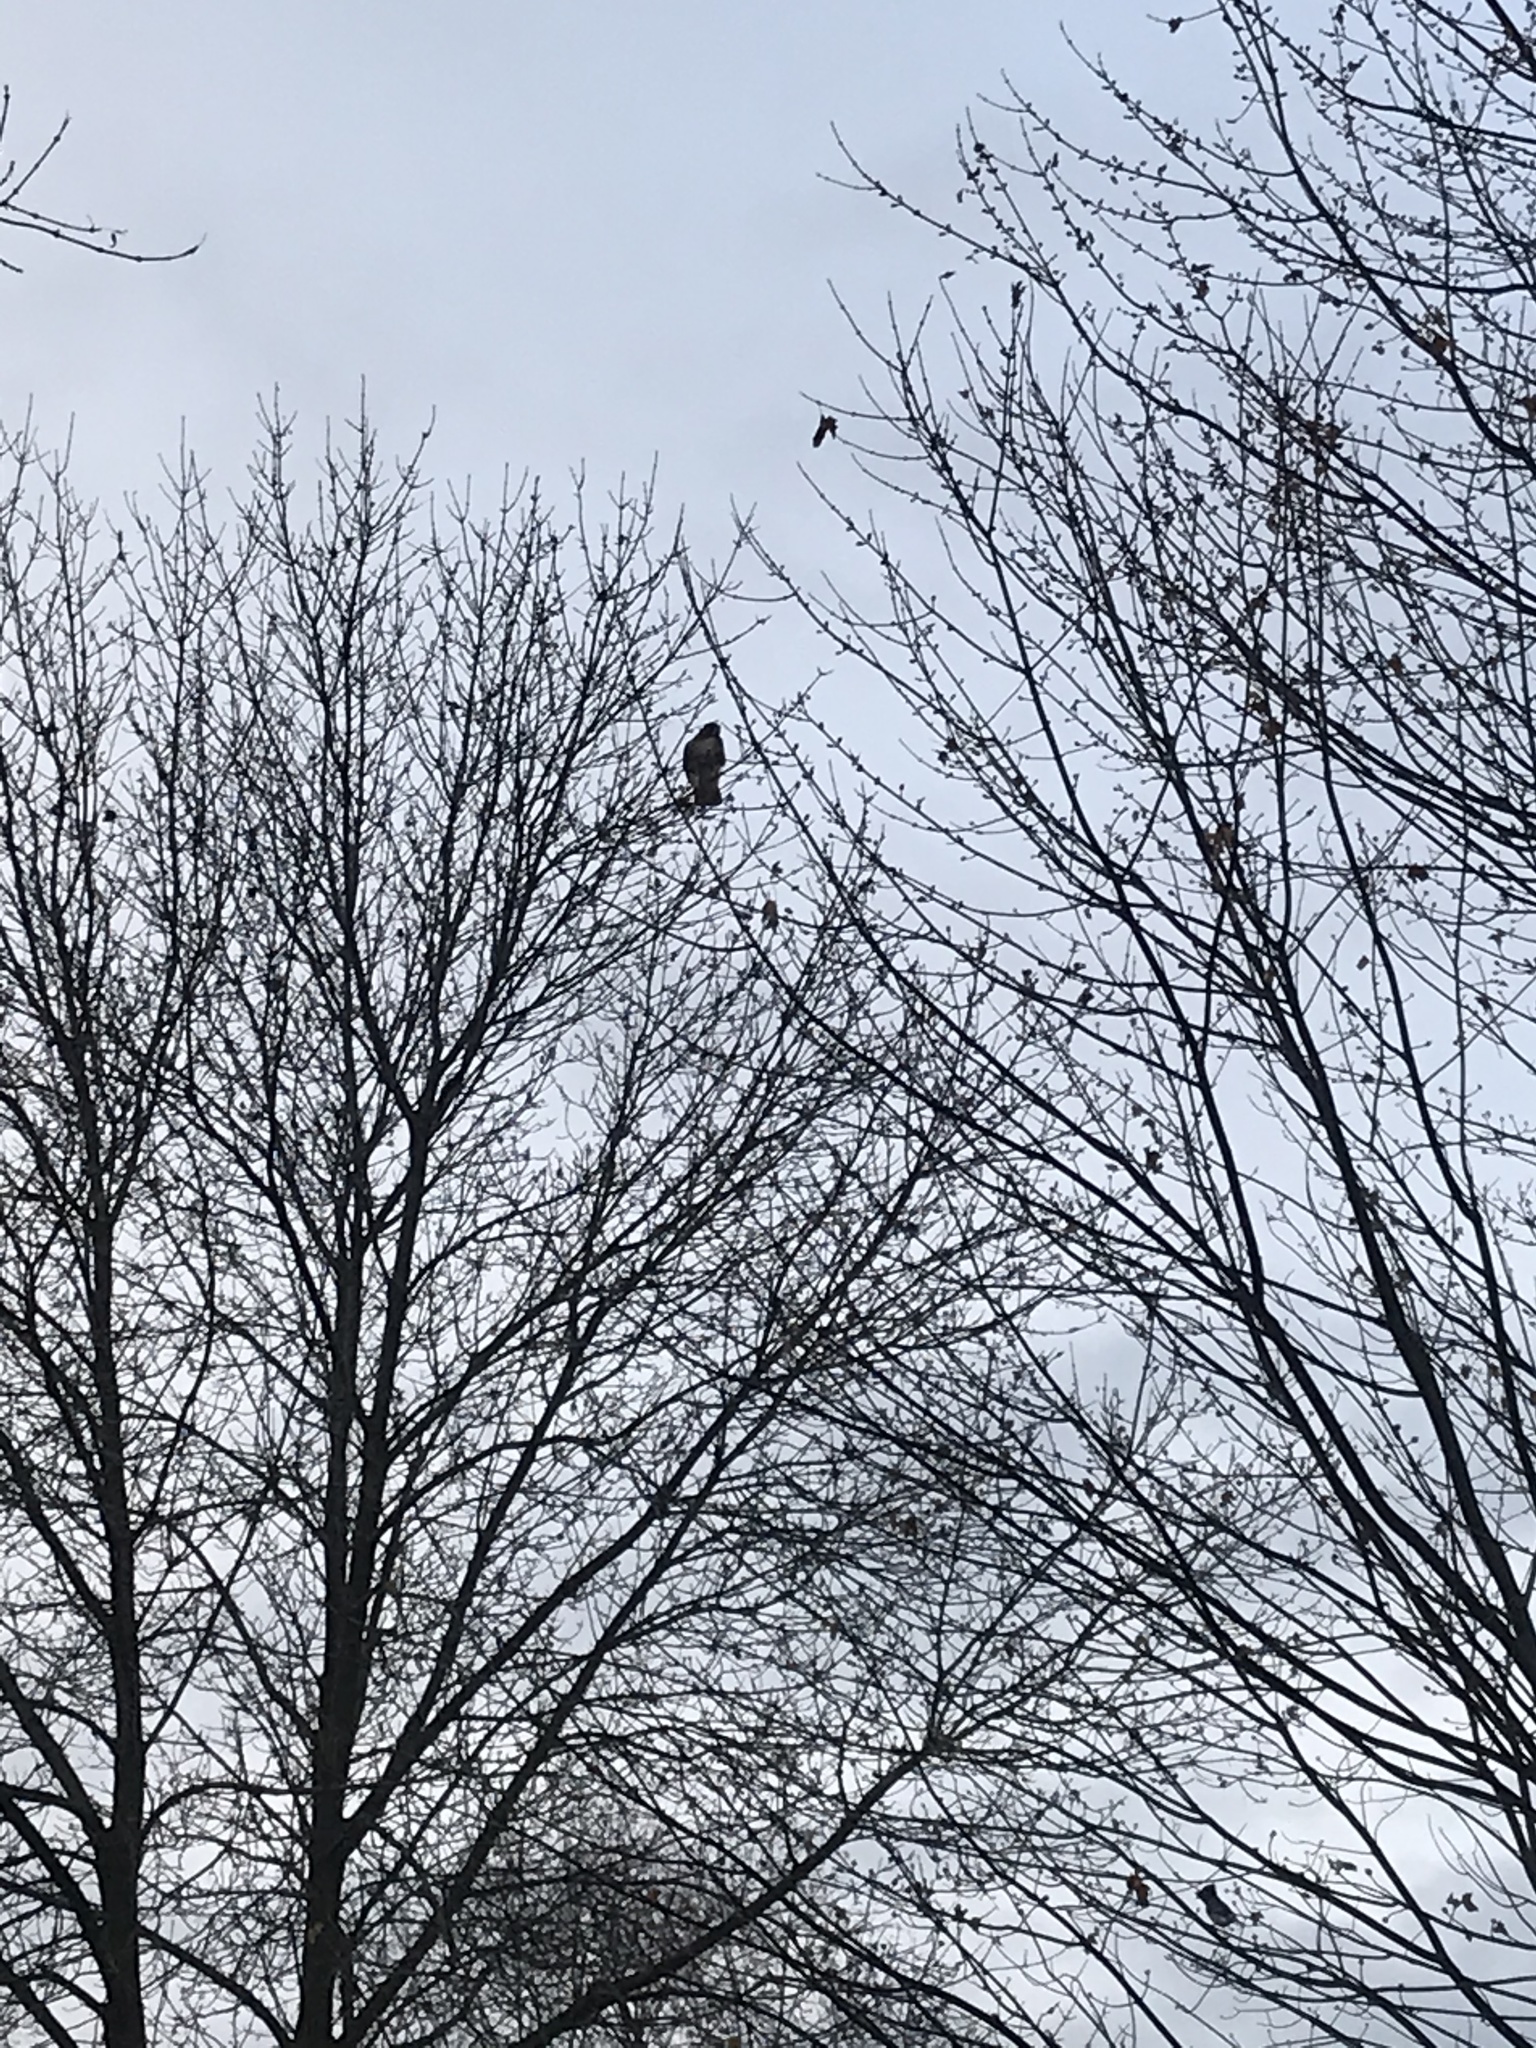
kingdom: Animalia
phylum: Chordata
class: Aves
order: Accipitriformes
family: Accipitridae
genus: Buteo
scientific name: Buteo jamaicensis
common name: Red-tailed hawk
